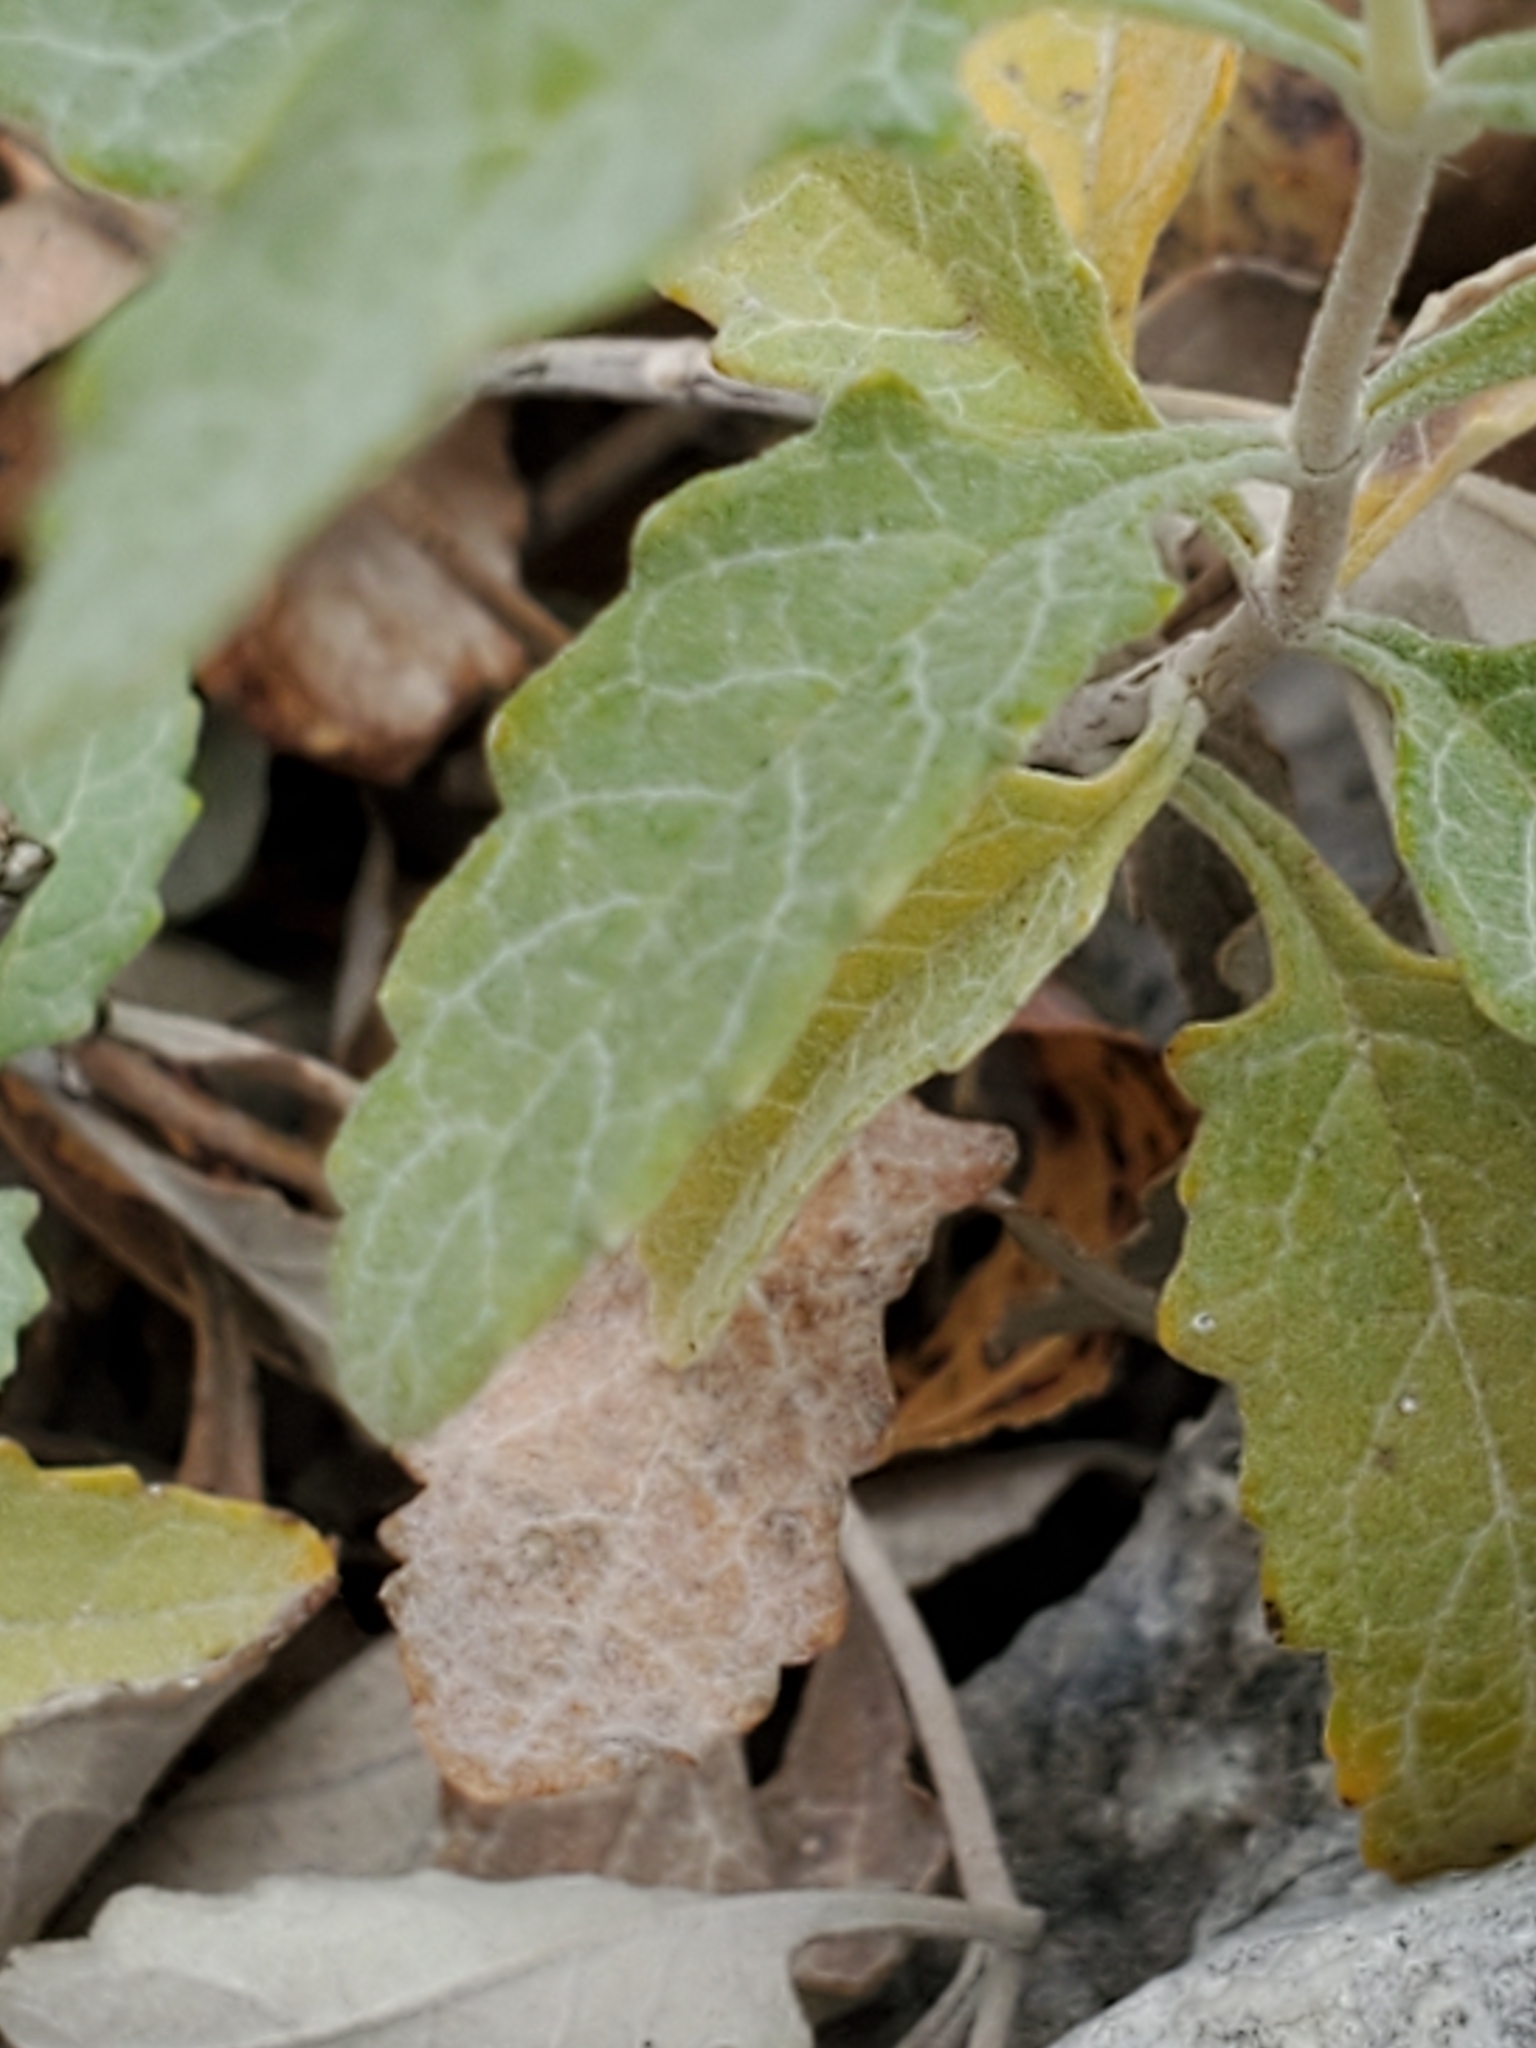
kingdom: Plantae
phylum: Tracheophyta
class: Magnoliopsida
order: Lamiales
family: Scrophulariaceae
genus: Buddleja
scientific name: Buddleja racemosa
